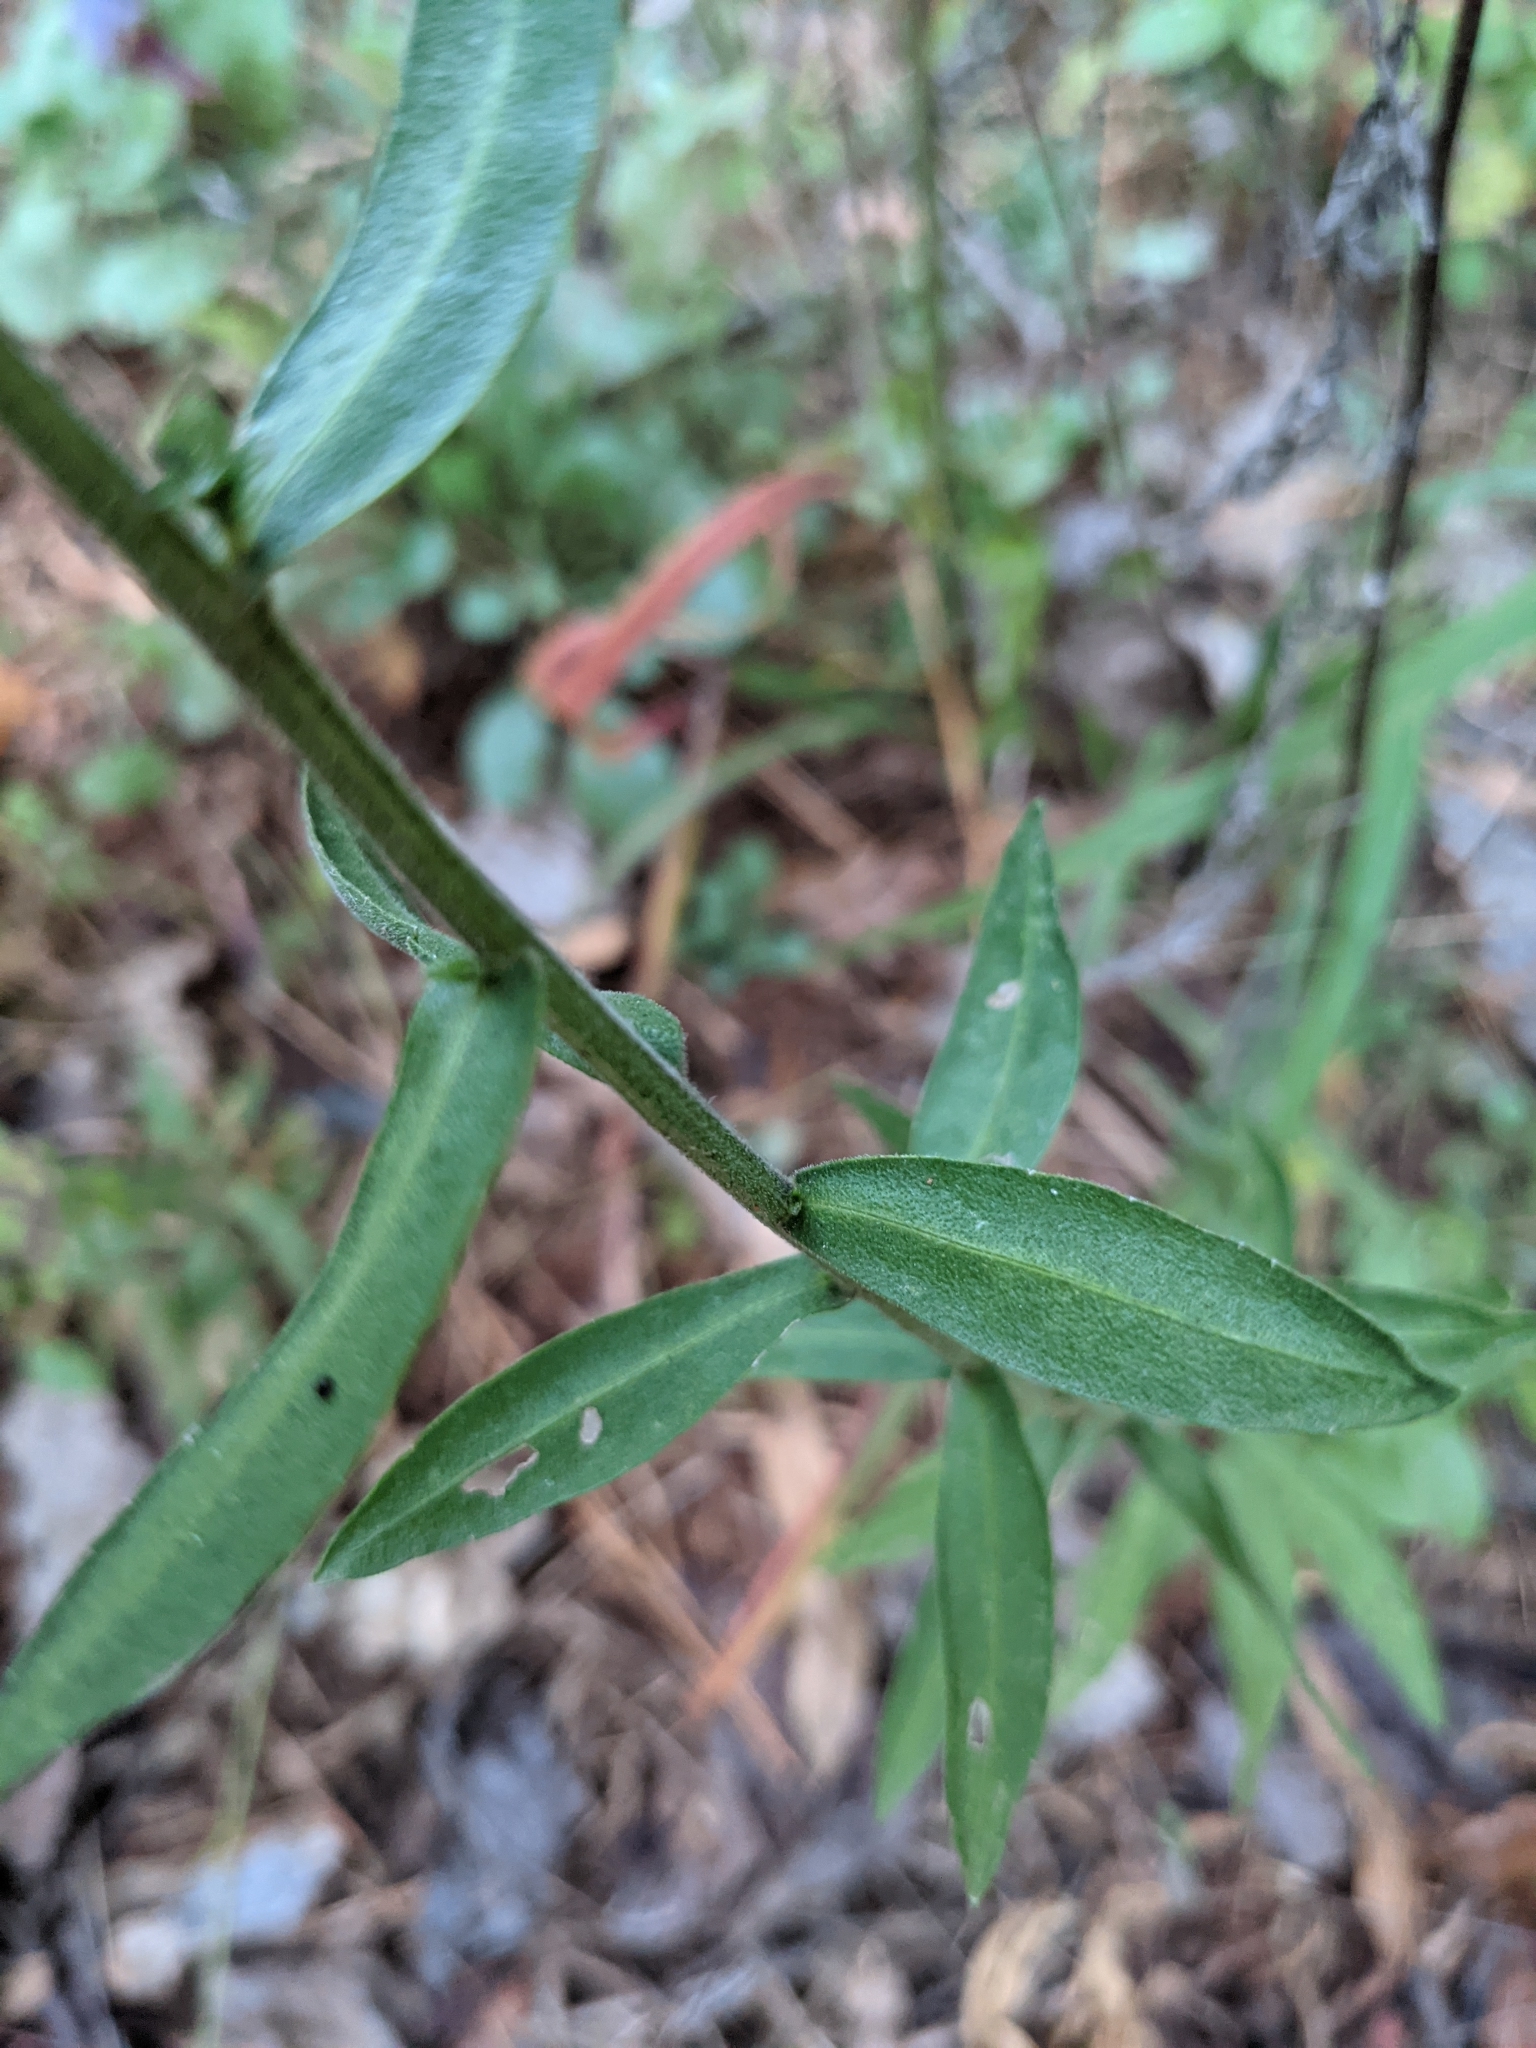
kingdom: Plantae
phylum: Tracheophyta
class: Magnoliopsida
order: Asterales
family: Asteraceae
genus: Liatris
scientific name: Liatris squarrulosa
